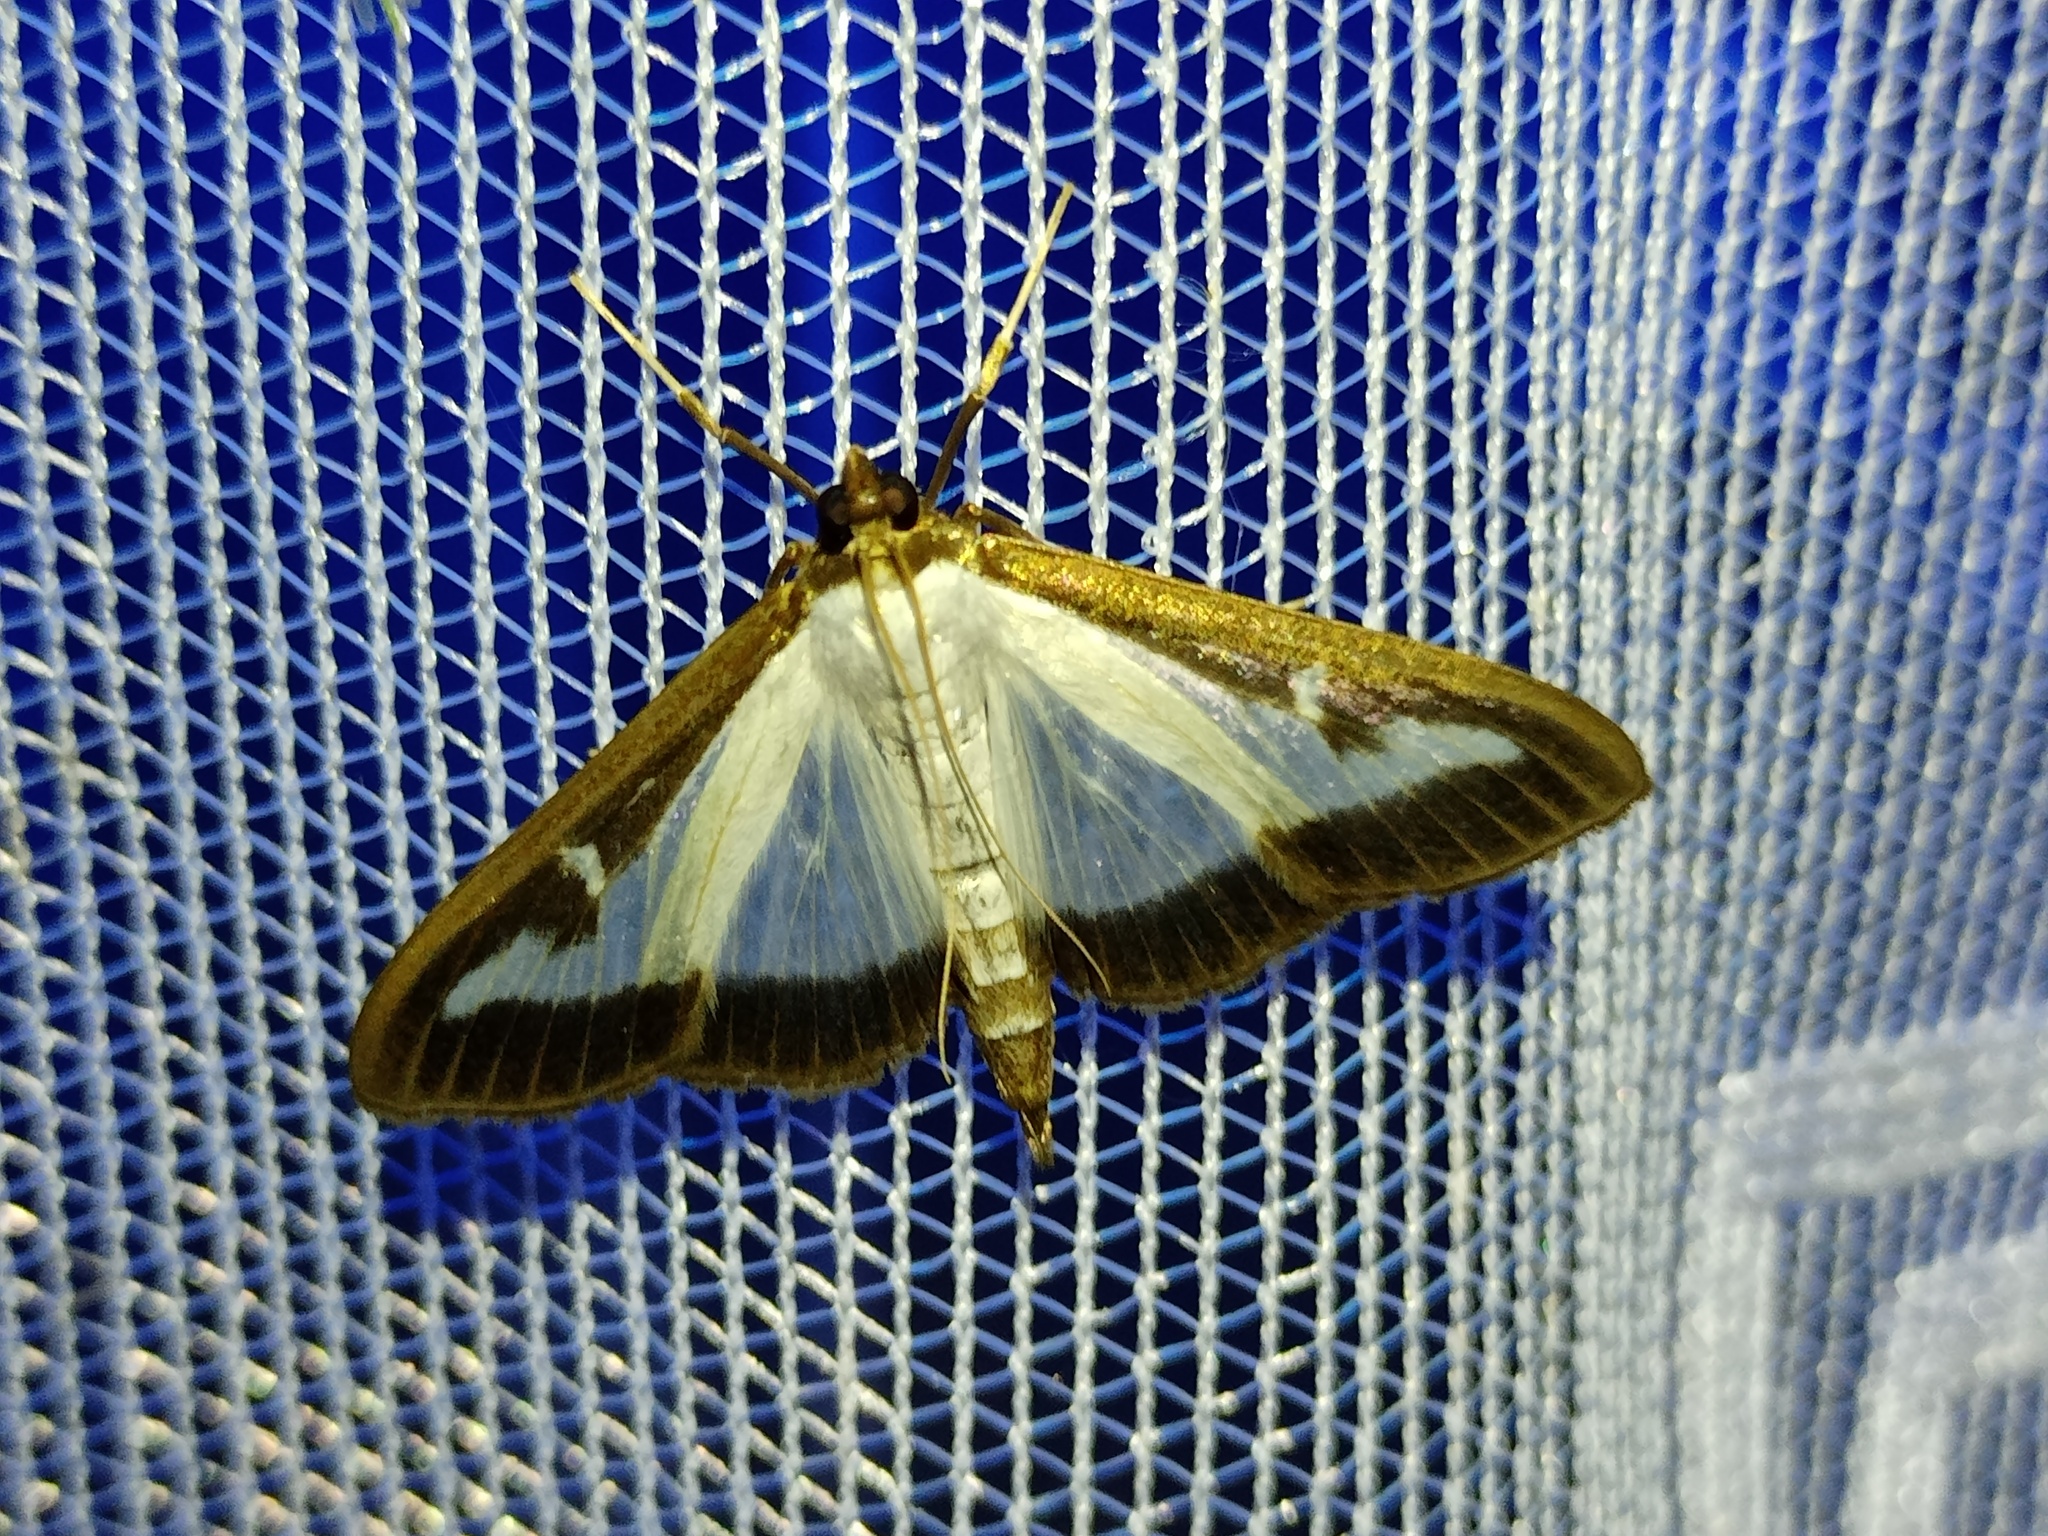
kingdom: Animalia
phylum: Arthropoda
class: Insecta
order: Lepidoptera
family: Crambidae
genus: Cydalima
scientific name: Cydalima perspectalis
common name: Box tree moth
